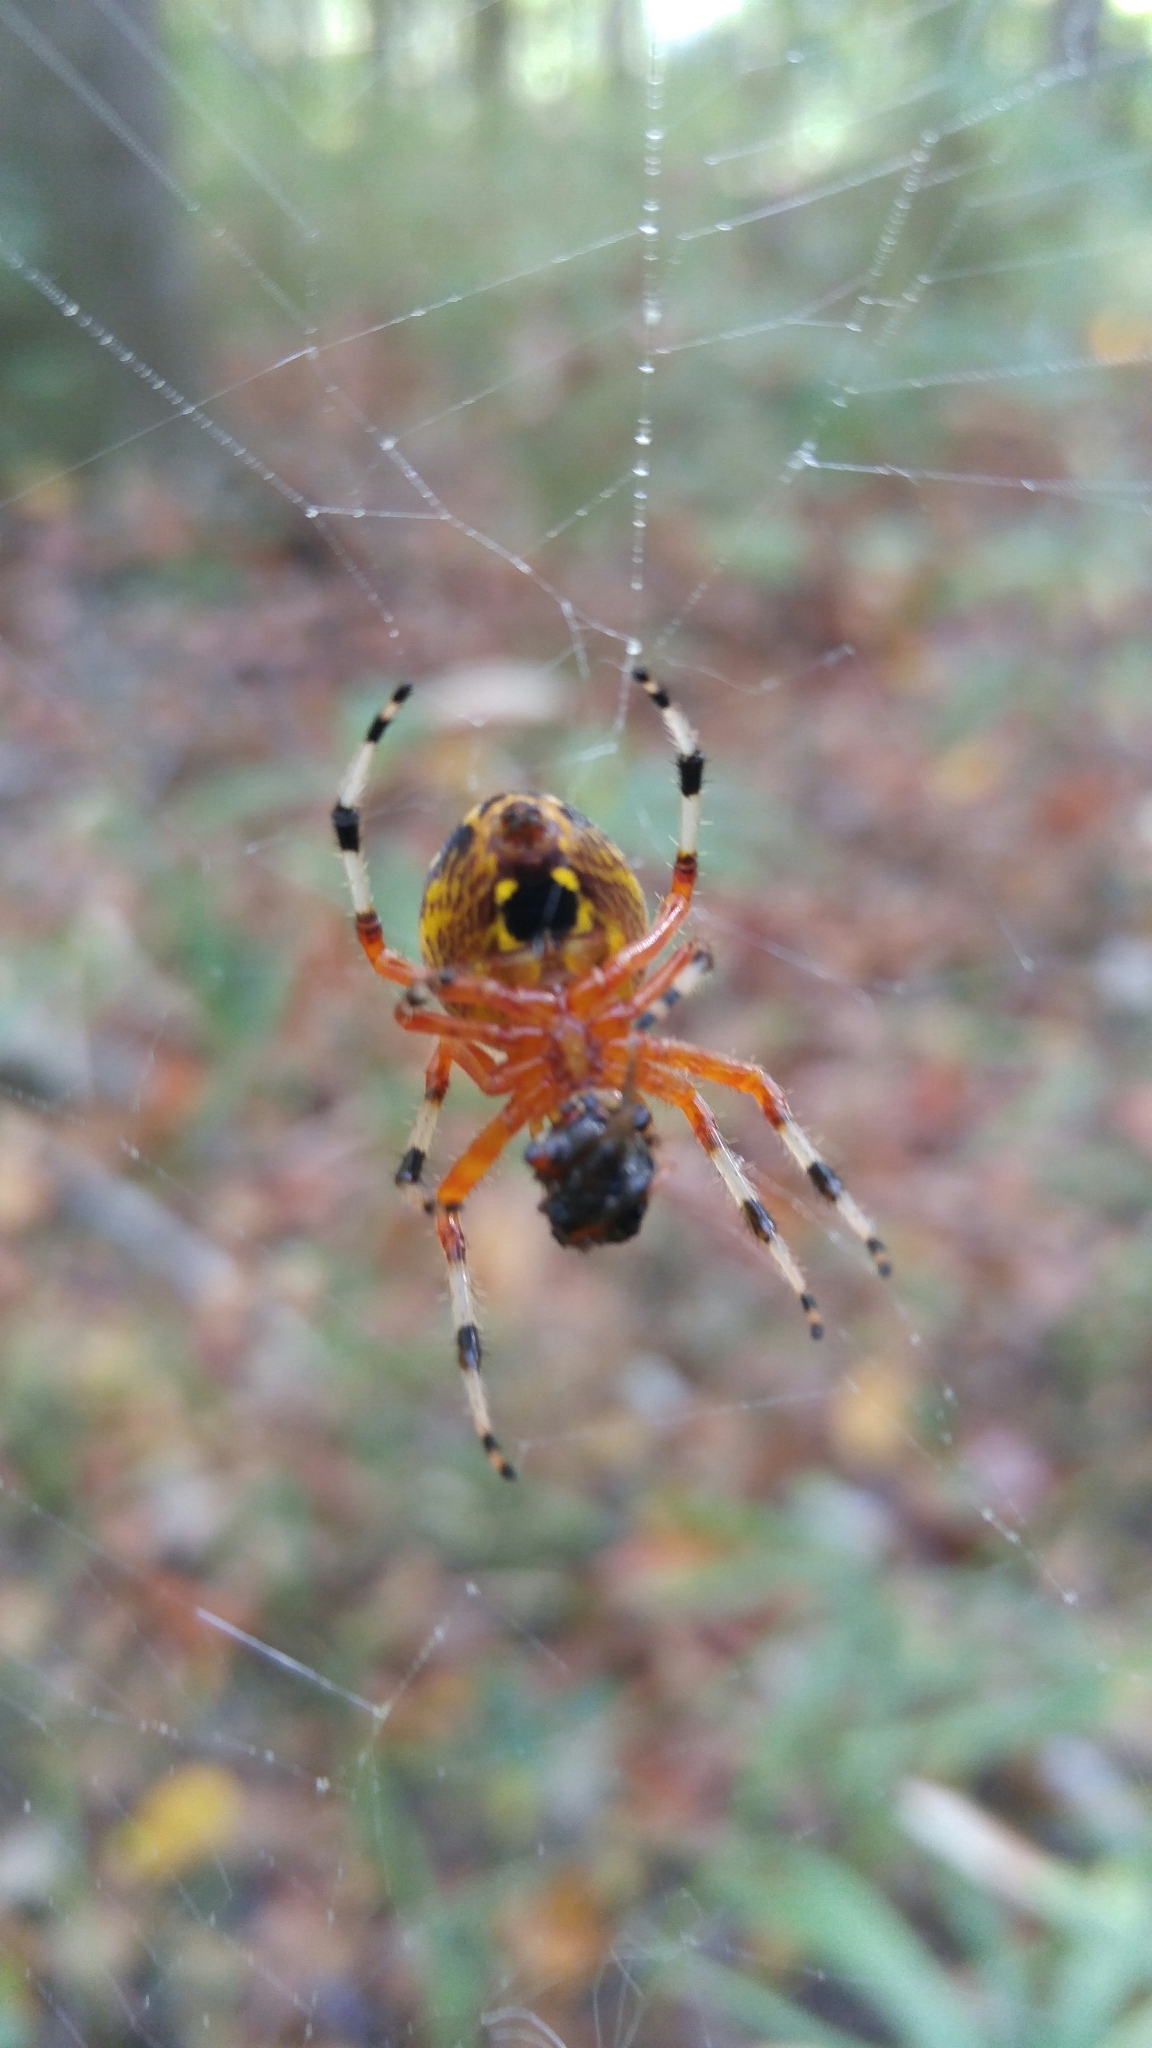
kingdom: Animalia
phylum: Arthropoda
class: Arachnida
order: Araneae
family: Araneidae
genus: Araneus
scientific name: Araneus marmoreus
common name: Marbled orbweaver
